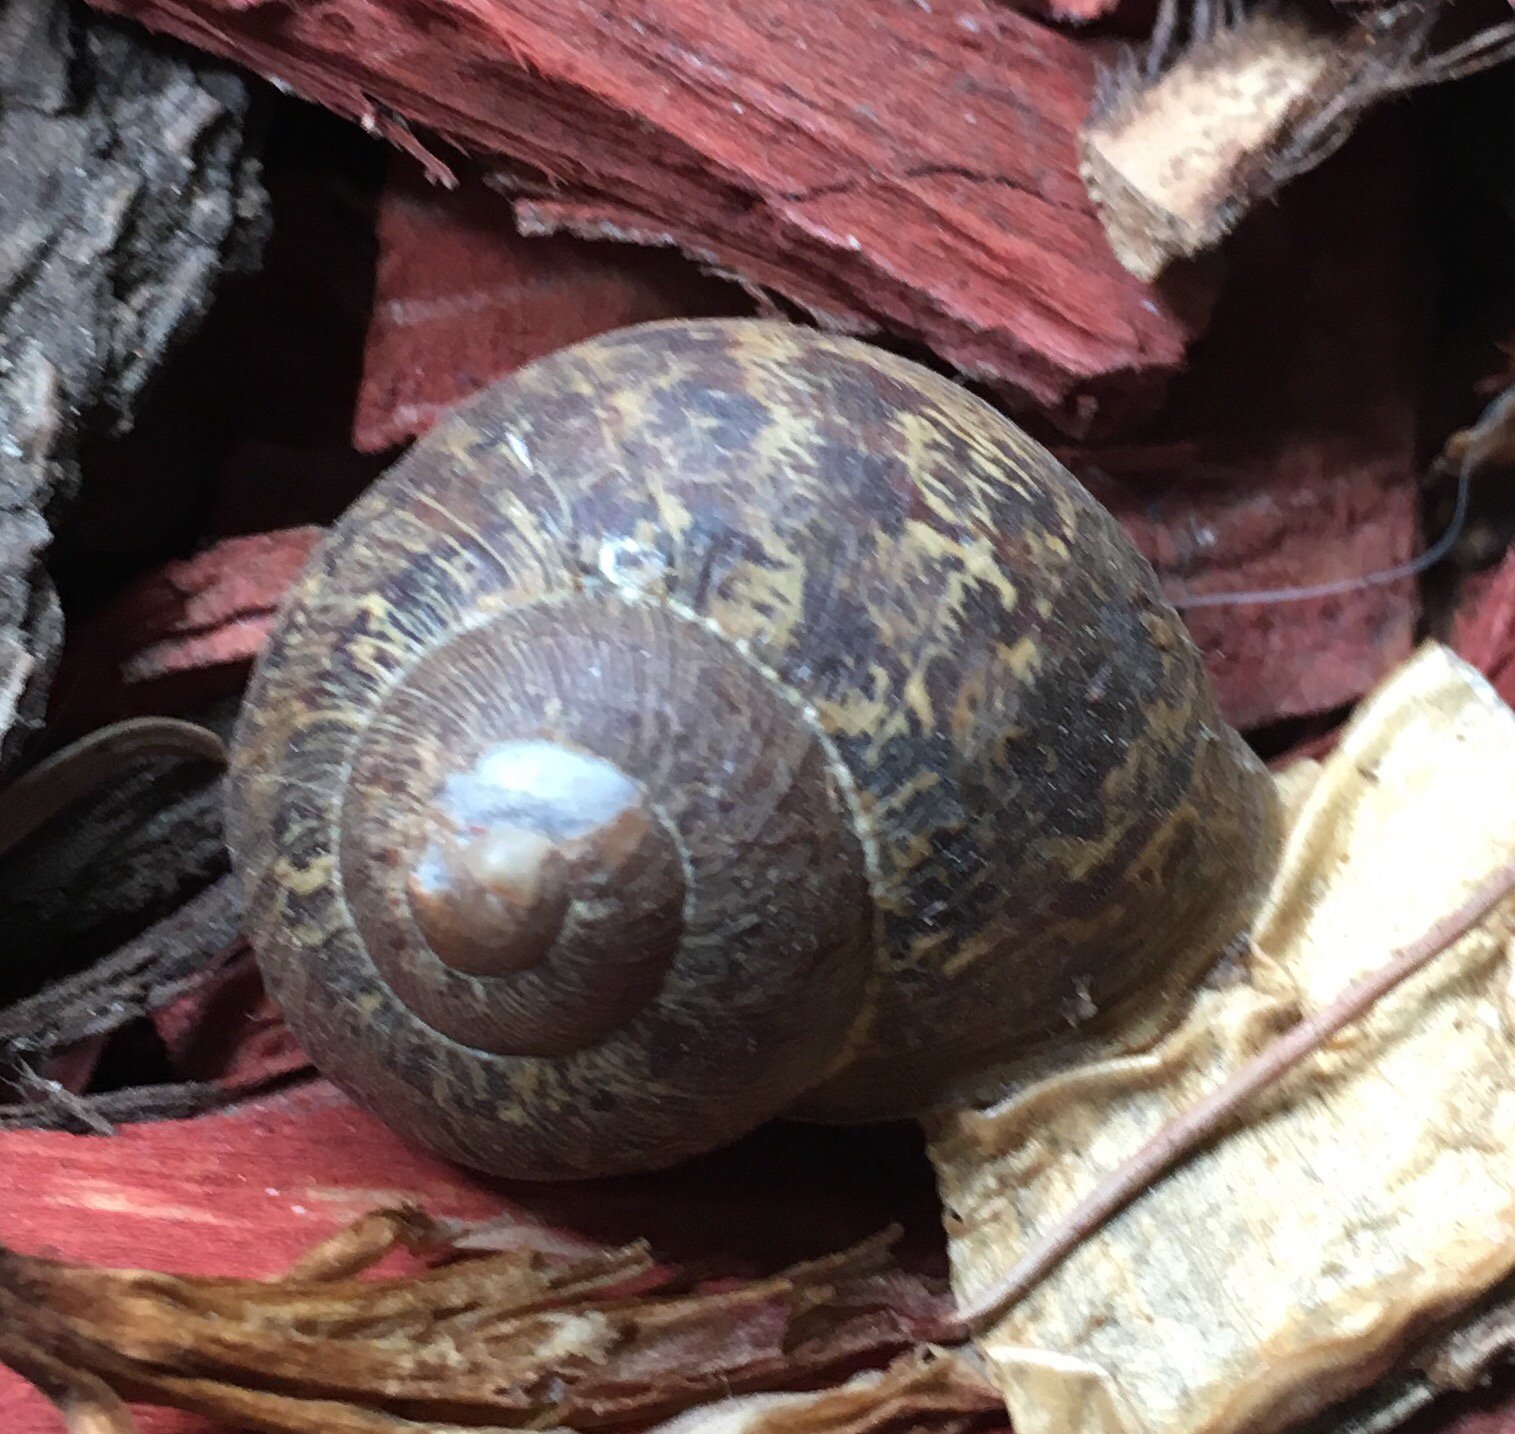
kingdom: Animalia
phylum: Mollusca
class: Gastropoda
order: Stylommatophora
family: Helicidae
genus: Cornu
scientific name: Cornu aspersum
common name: Brown garden snail
